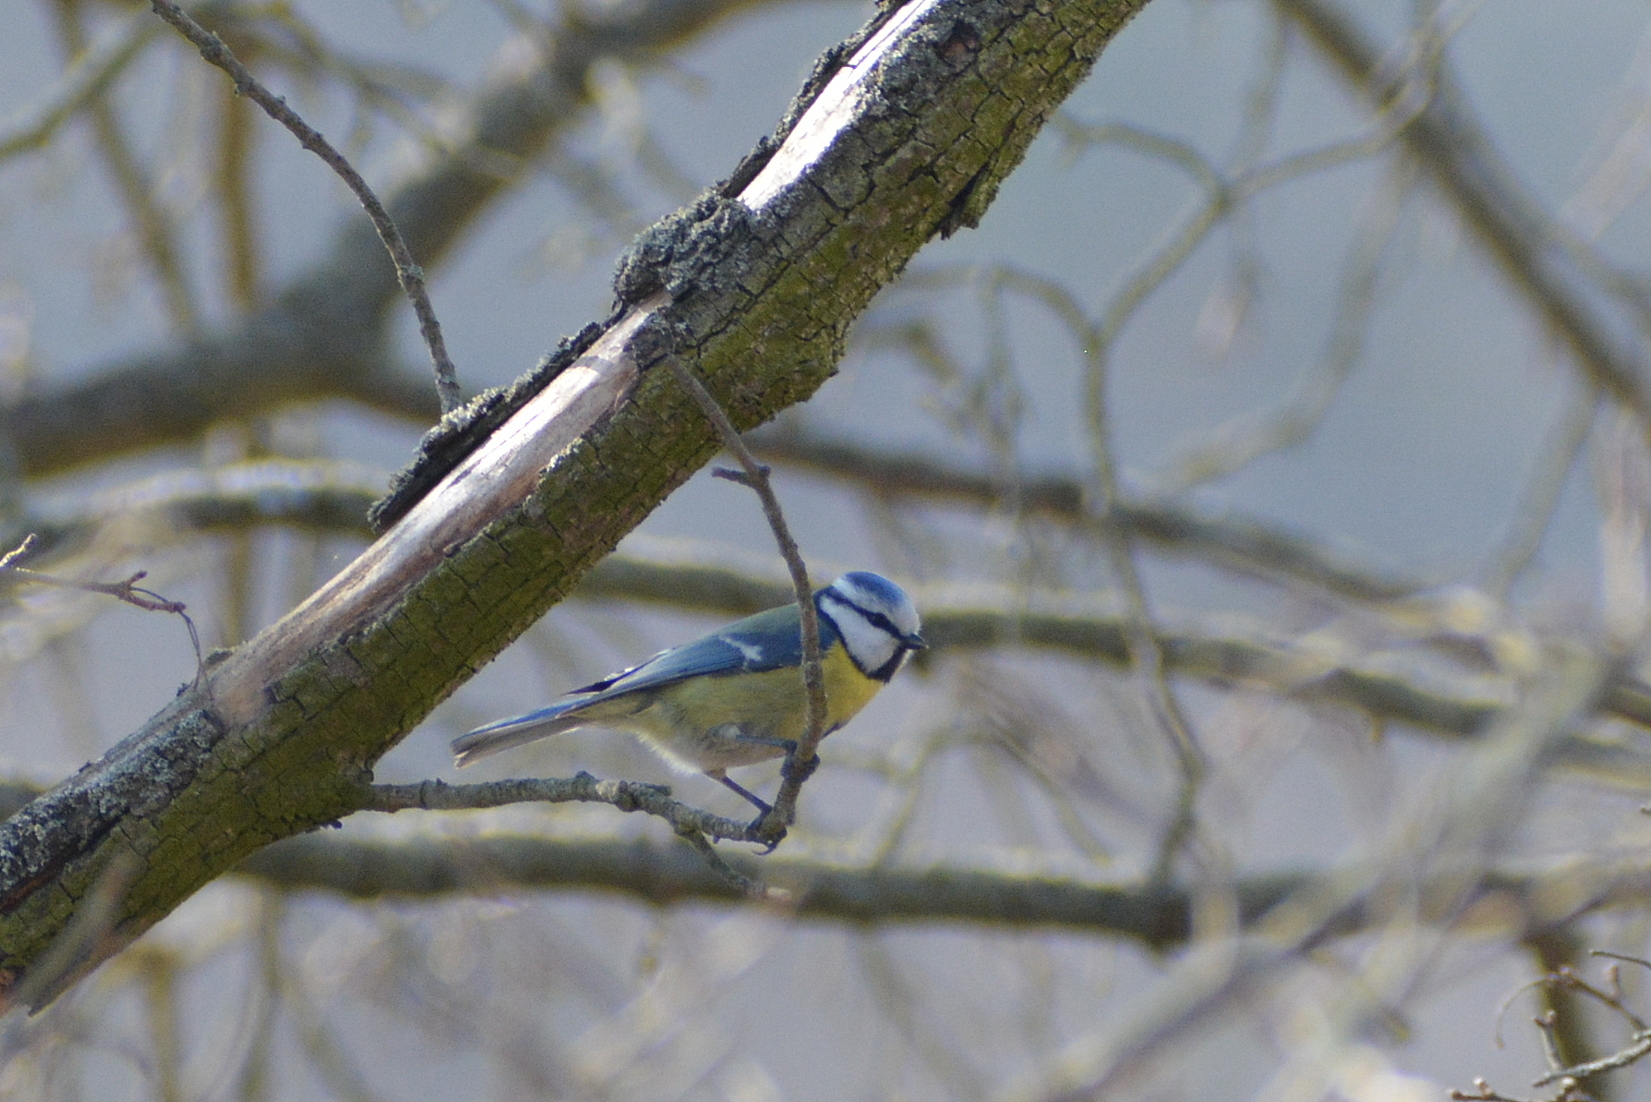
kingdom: Animalia
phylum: Chordata
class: Aves
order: Passeriformes
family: Paridae
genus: Cyanistes
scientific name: Cyanistes caeruleus
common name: Eurasian blue tit
